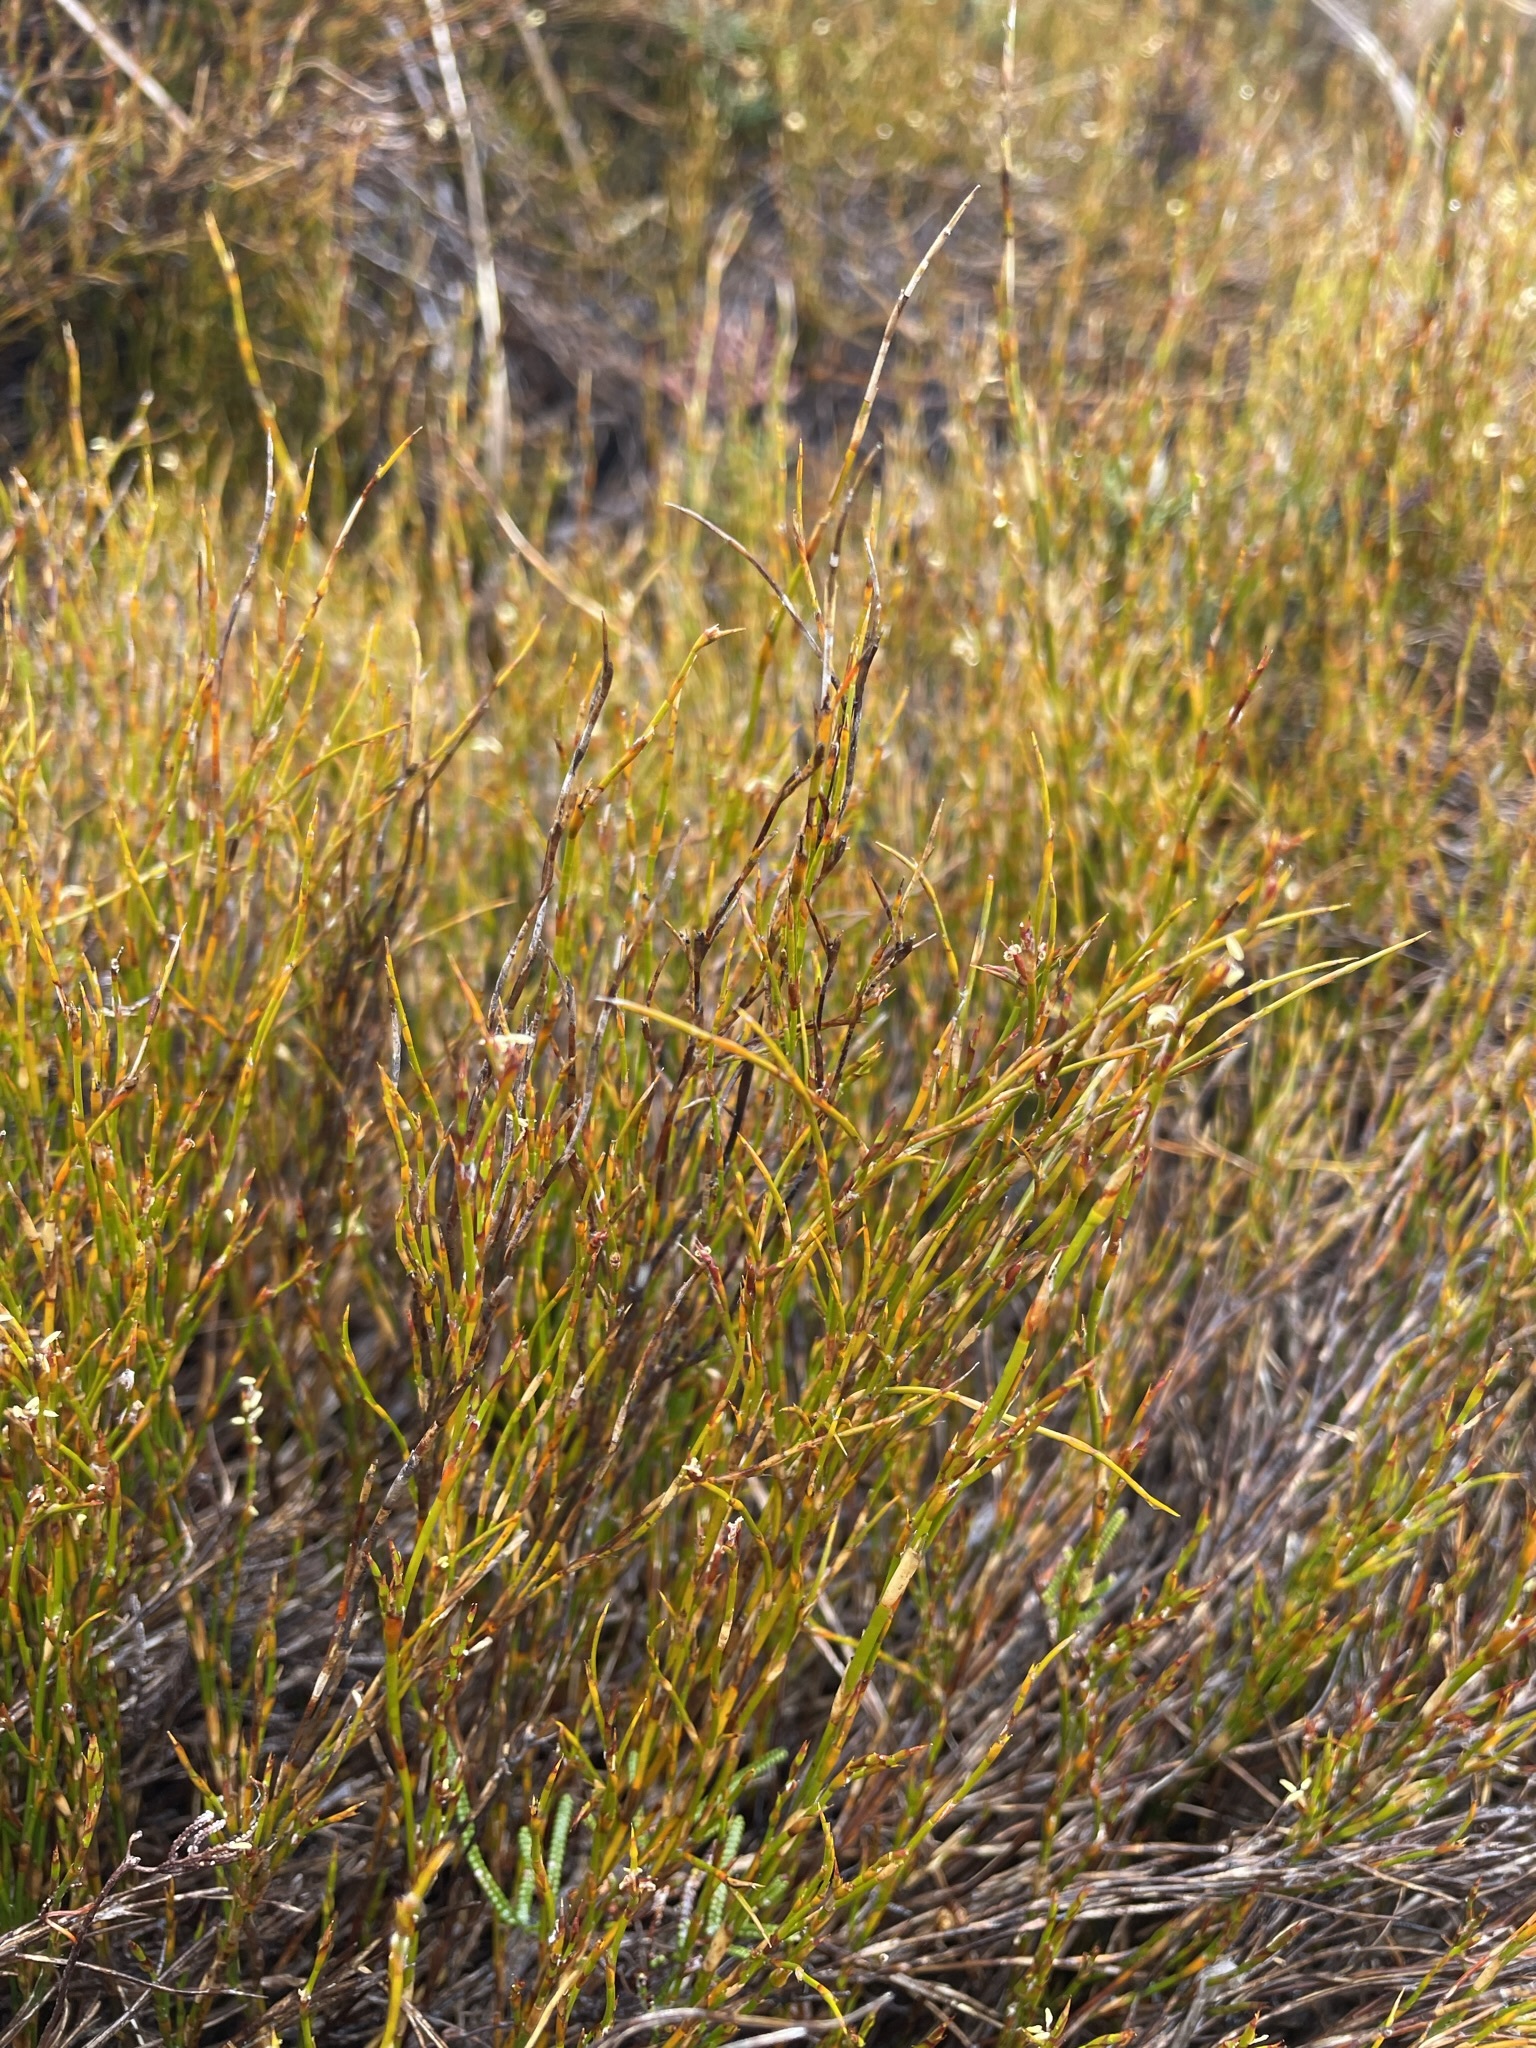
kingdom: Plantae
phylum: Tracheophyta
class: Liliopsida
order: Poales
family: Restionaceae
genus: Empodisma
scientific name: Empodisma minus
